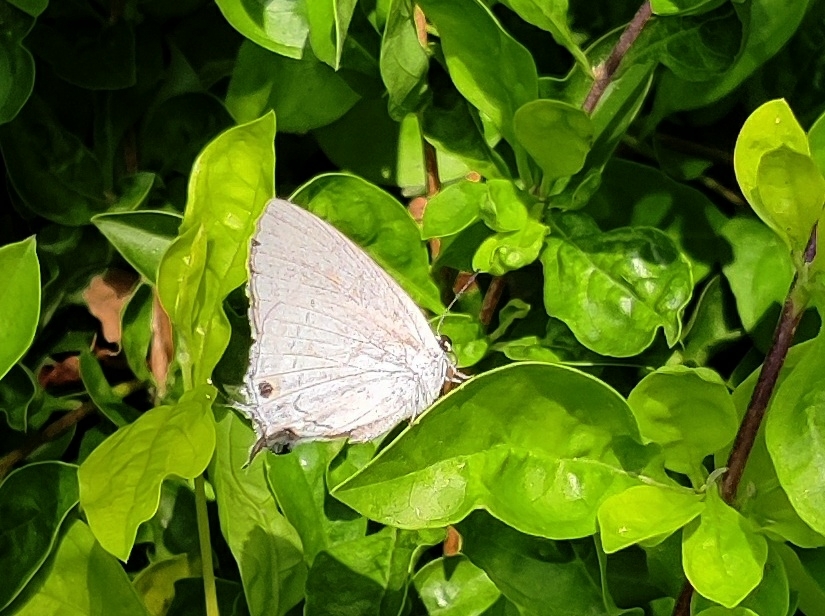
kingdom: Animalia
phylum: Arthropoda
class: Insecta
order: Lepidoptera
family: Lycaenidae
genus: Tajuria
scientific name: Tajuria cippus
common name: Peacock royal
